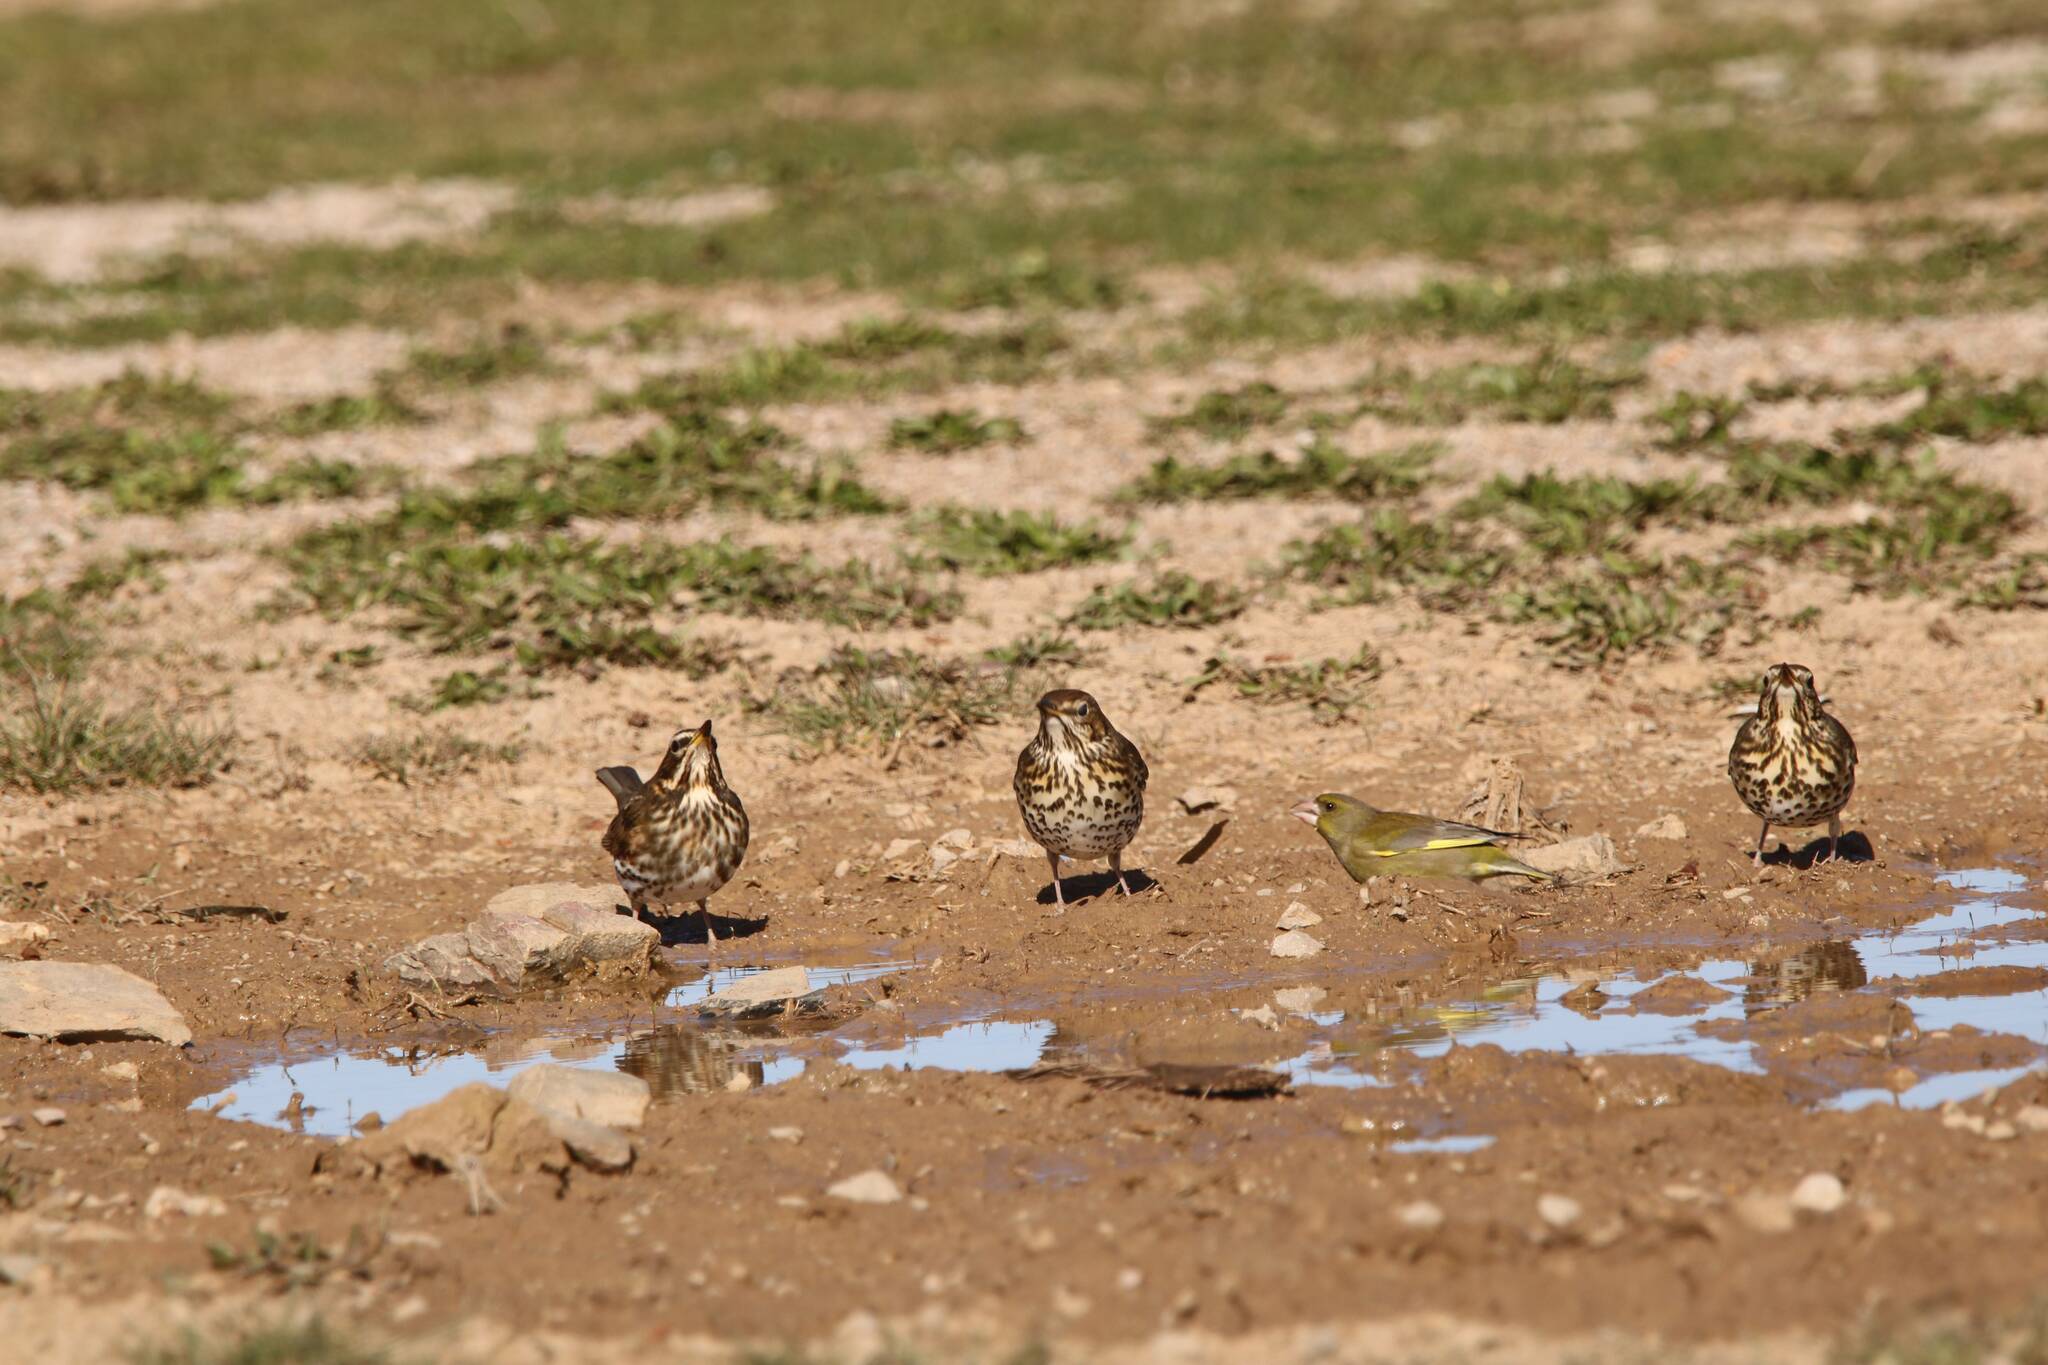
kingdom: Animalia
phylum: Chordata
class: Aves
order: Passeriformes
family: Turdidae
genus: Turdus
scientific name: Turdus philomelos
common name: Song thrush
